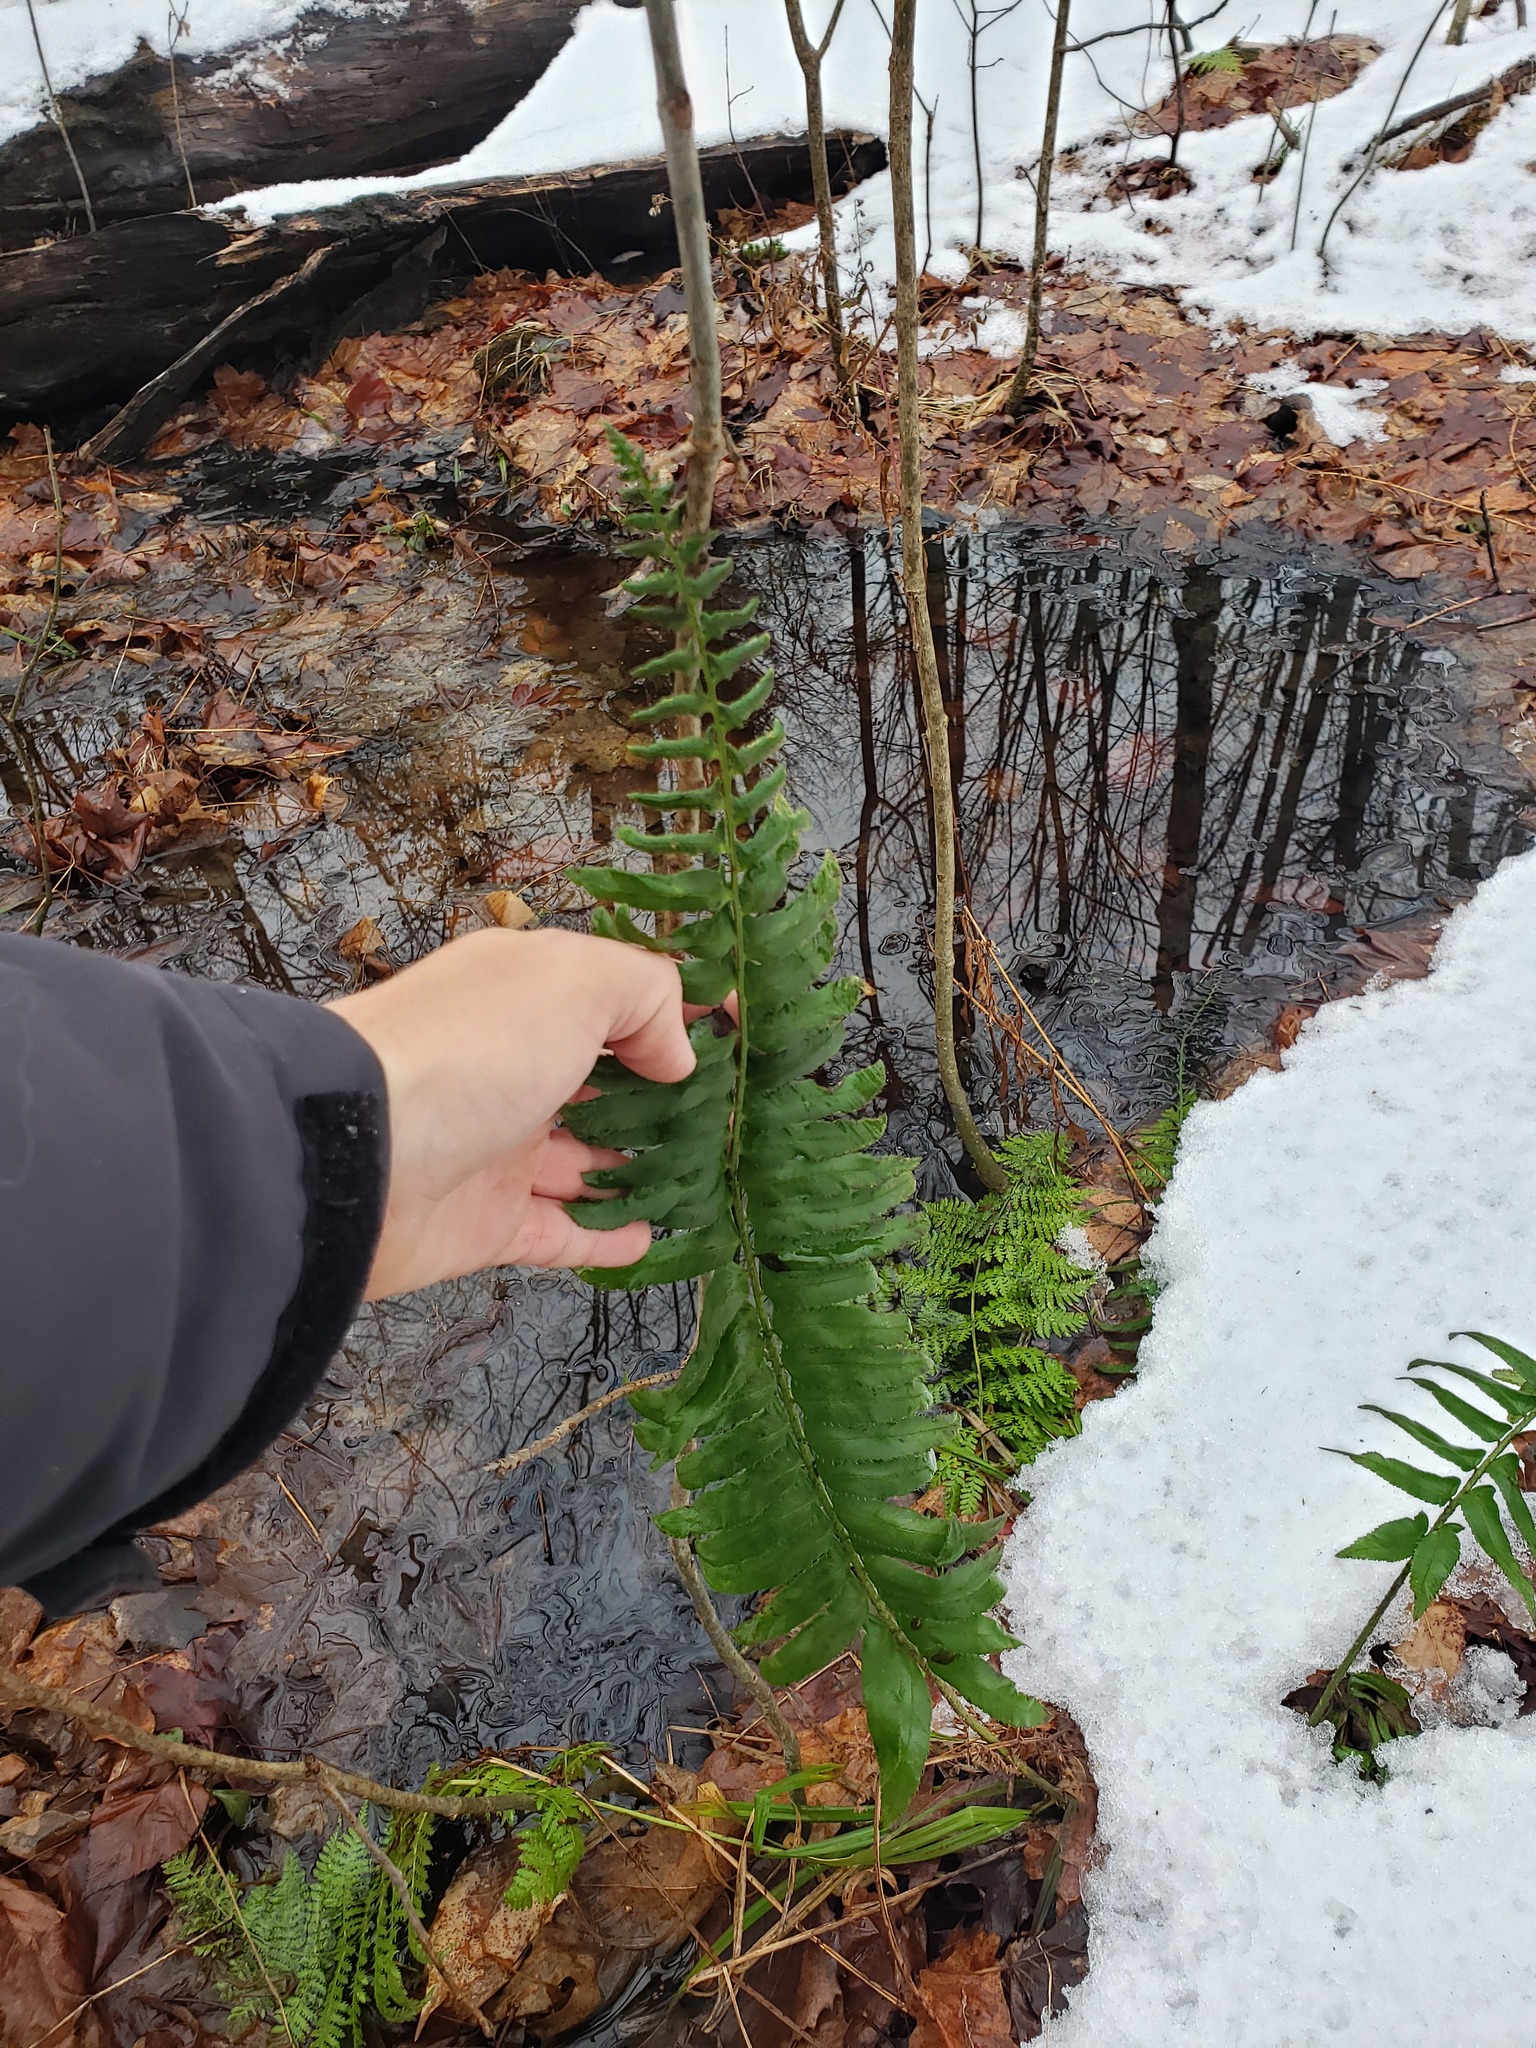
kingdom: Plantae
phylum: Tracheophyta
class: Polypodiopsida
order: Polypodiales
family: Dryopteridaceae
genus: Polystichum
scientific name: Polystichum acrostichoides
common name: Christmas fern
